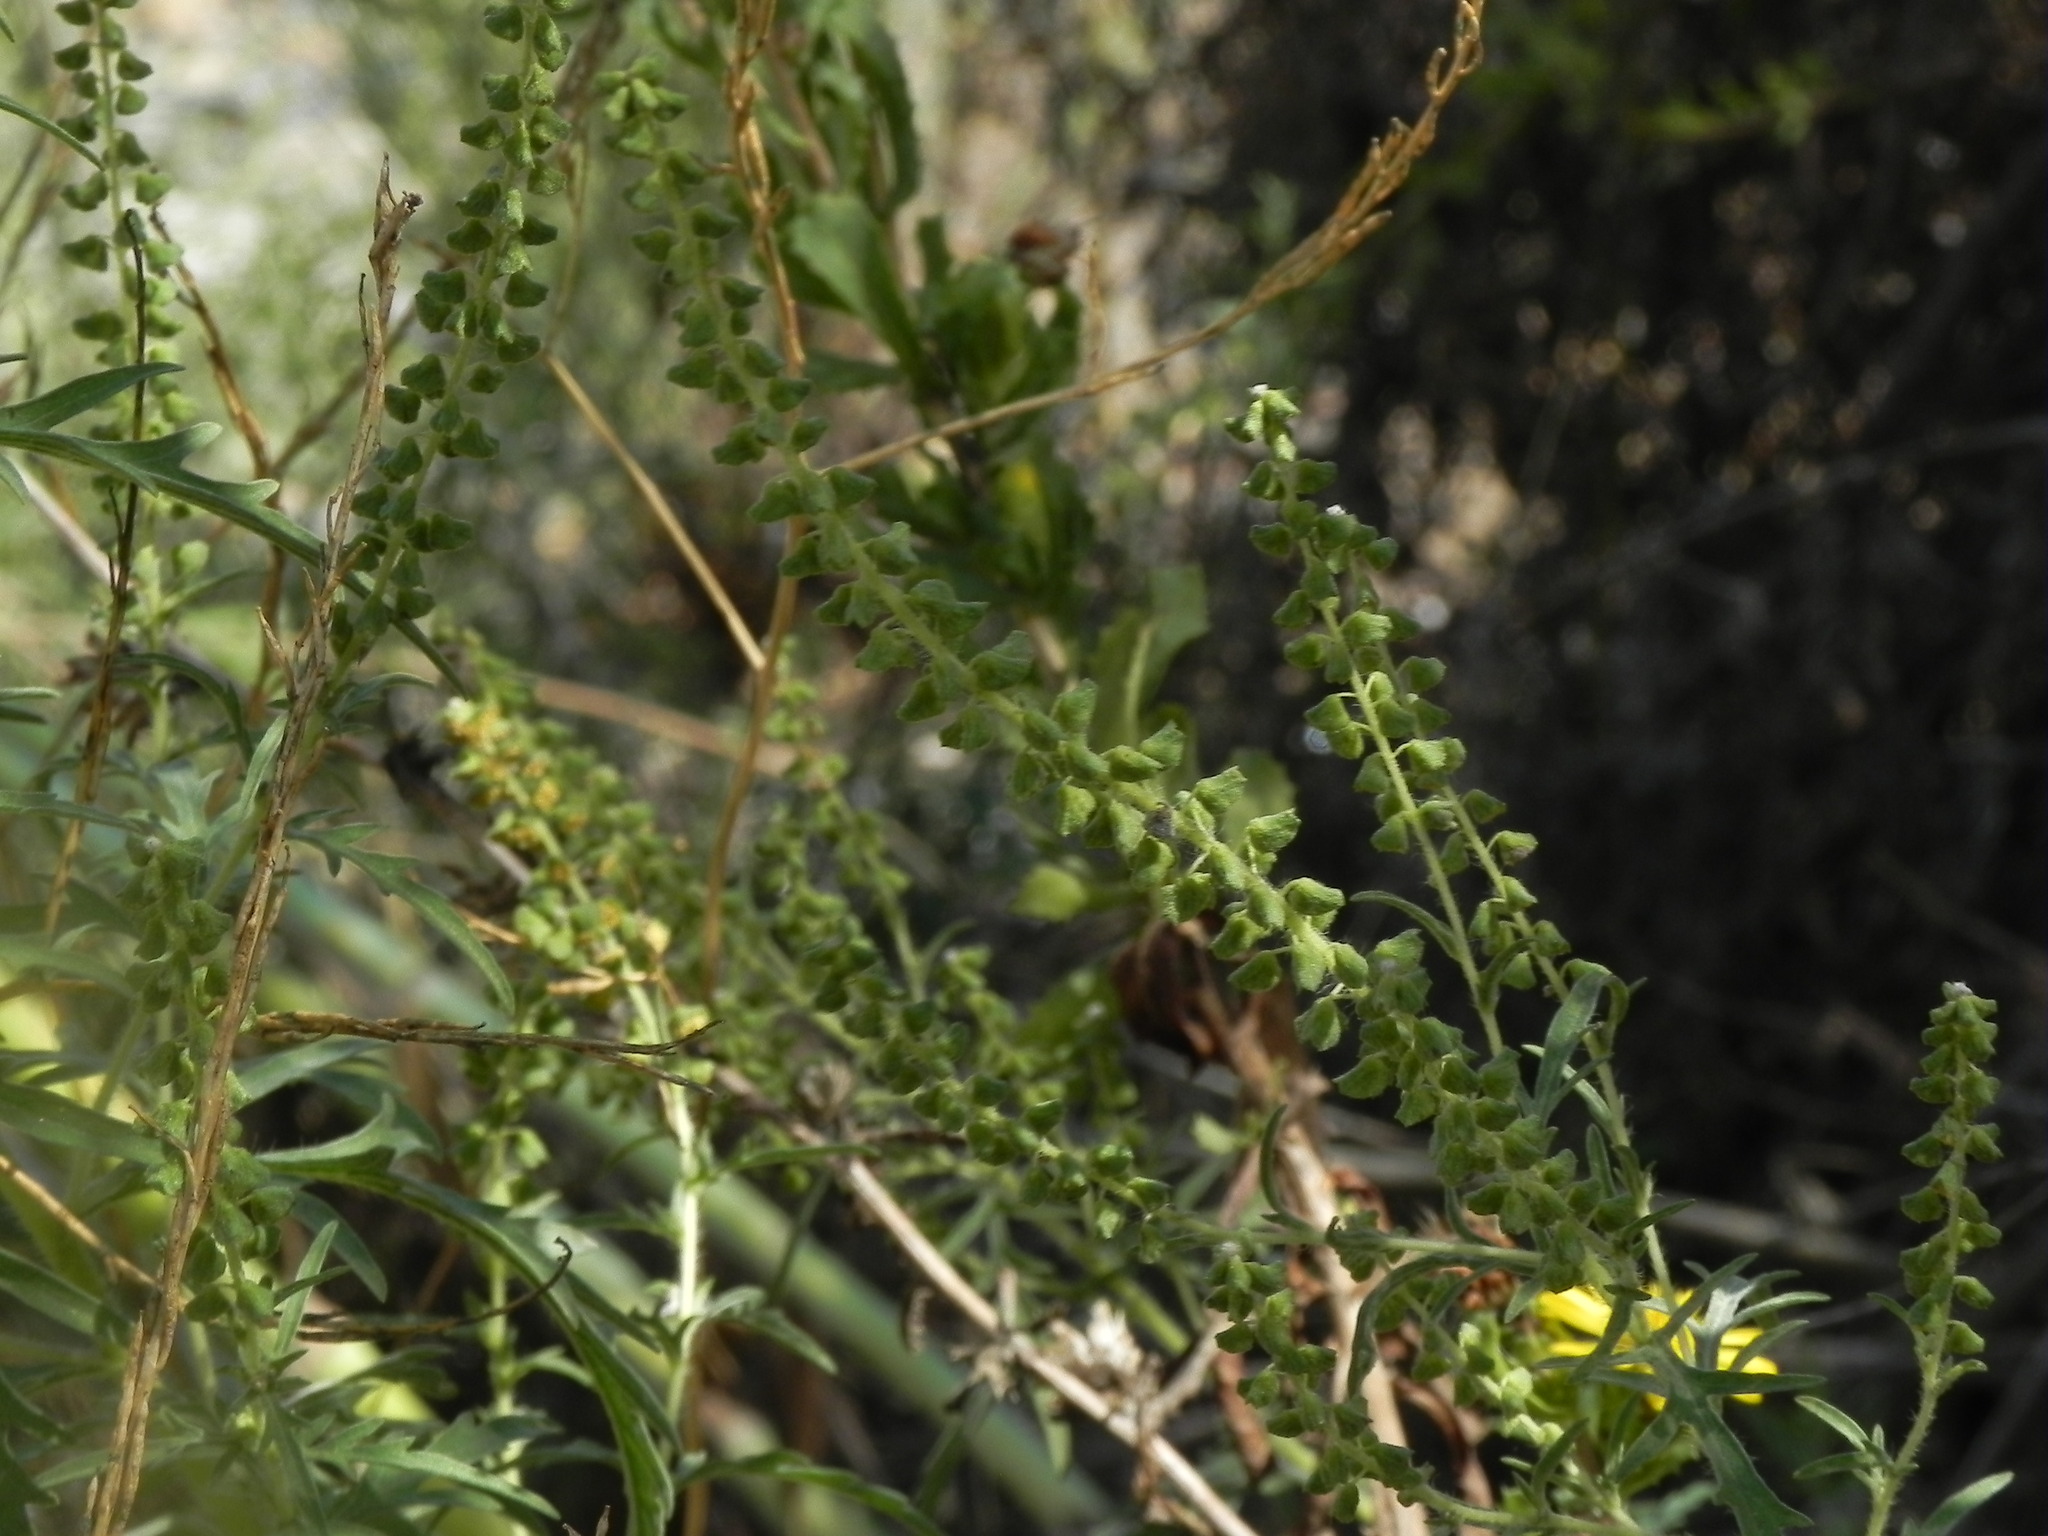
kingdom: Plantae
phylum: Tracheophyta
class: Magnoliopsida
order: Asterales
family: Asteraceae
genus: Ambrosia
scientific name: Ambrosia psilostachya
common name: Perennial ragweed
